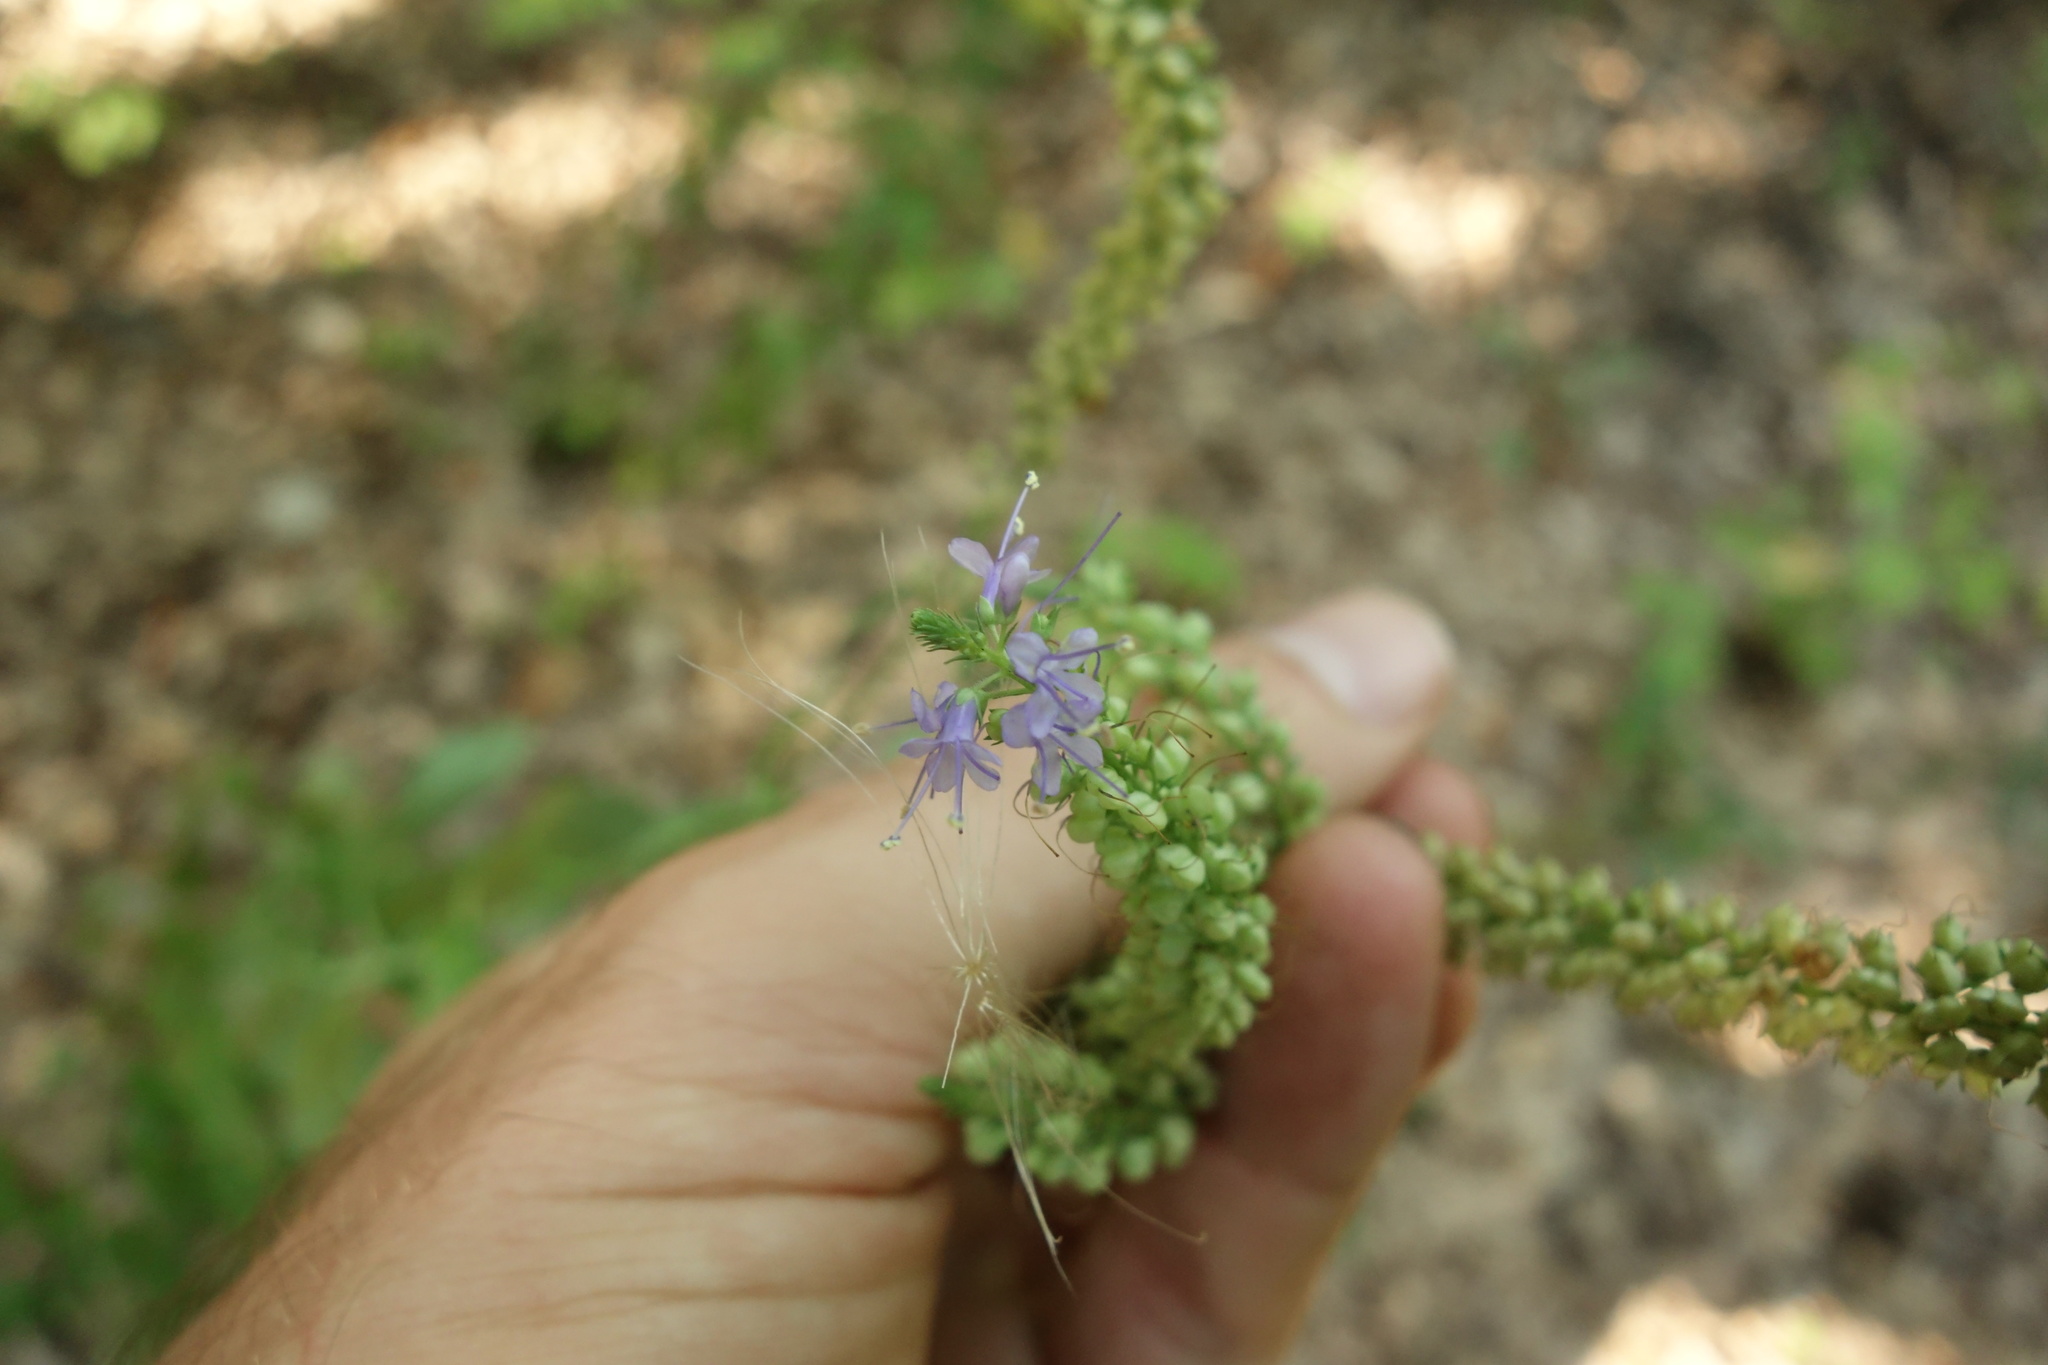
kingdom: Plantae
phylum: Tracheophyta
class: Magnoliopsida
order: Lamiales
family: Plantaginaceae
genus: Veronica
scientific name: Veronica longifolia
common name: Garden speedwell
